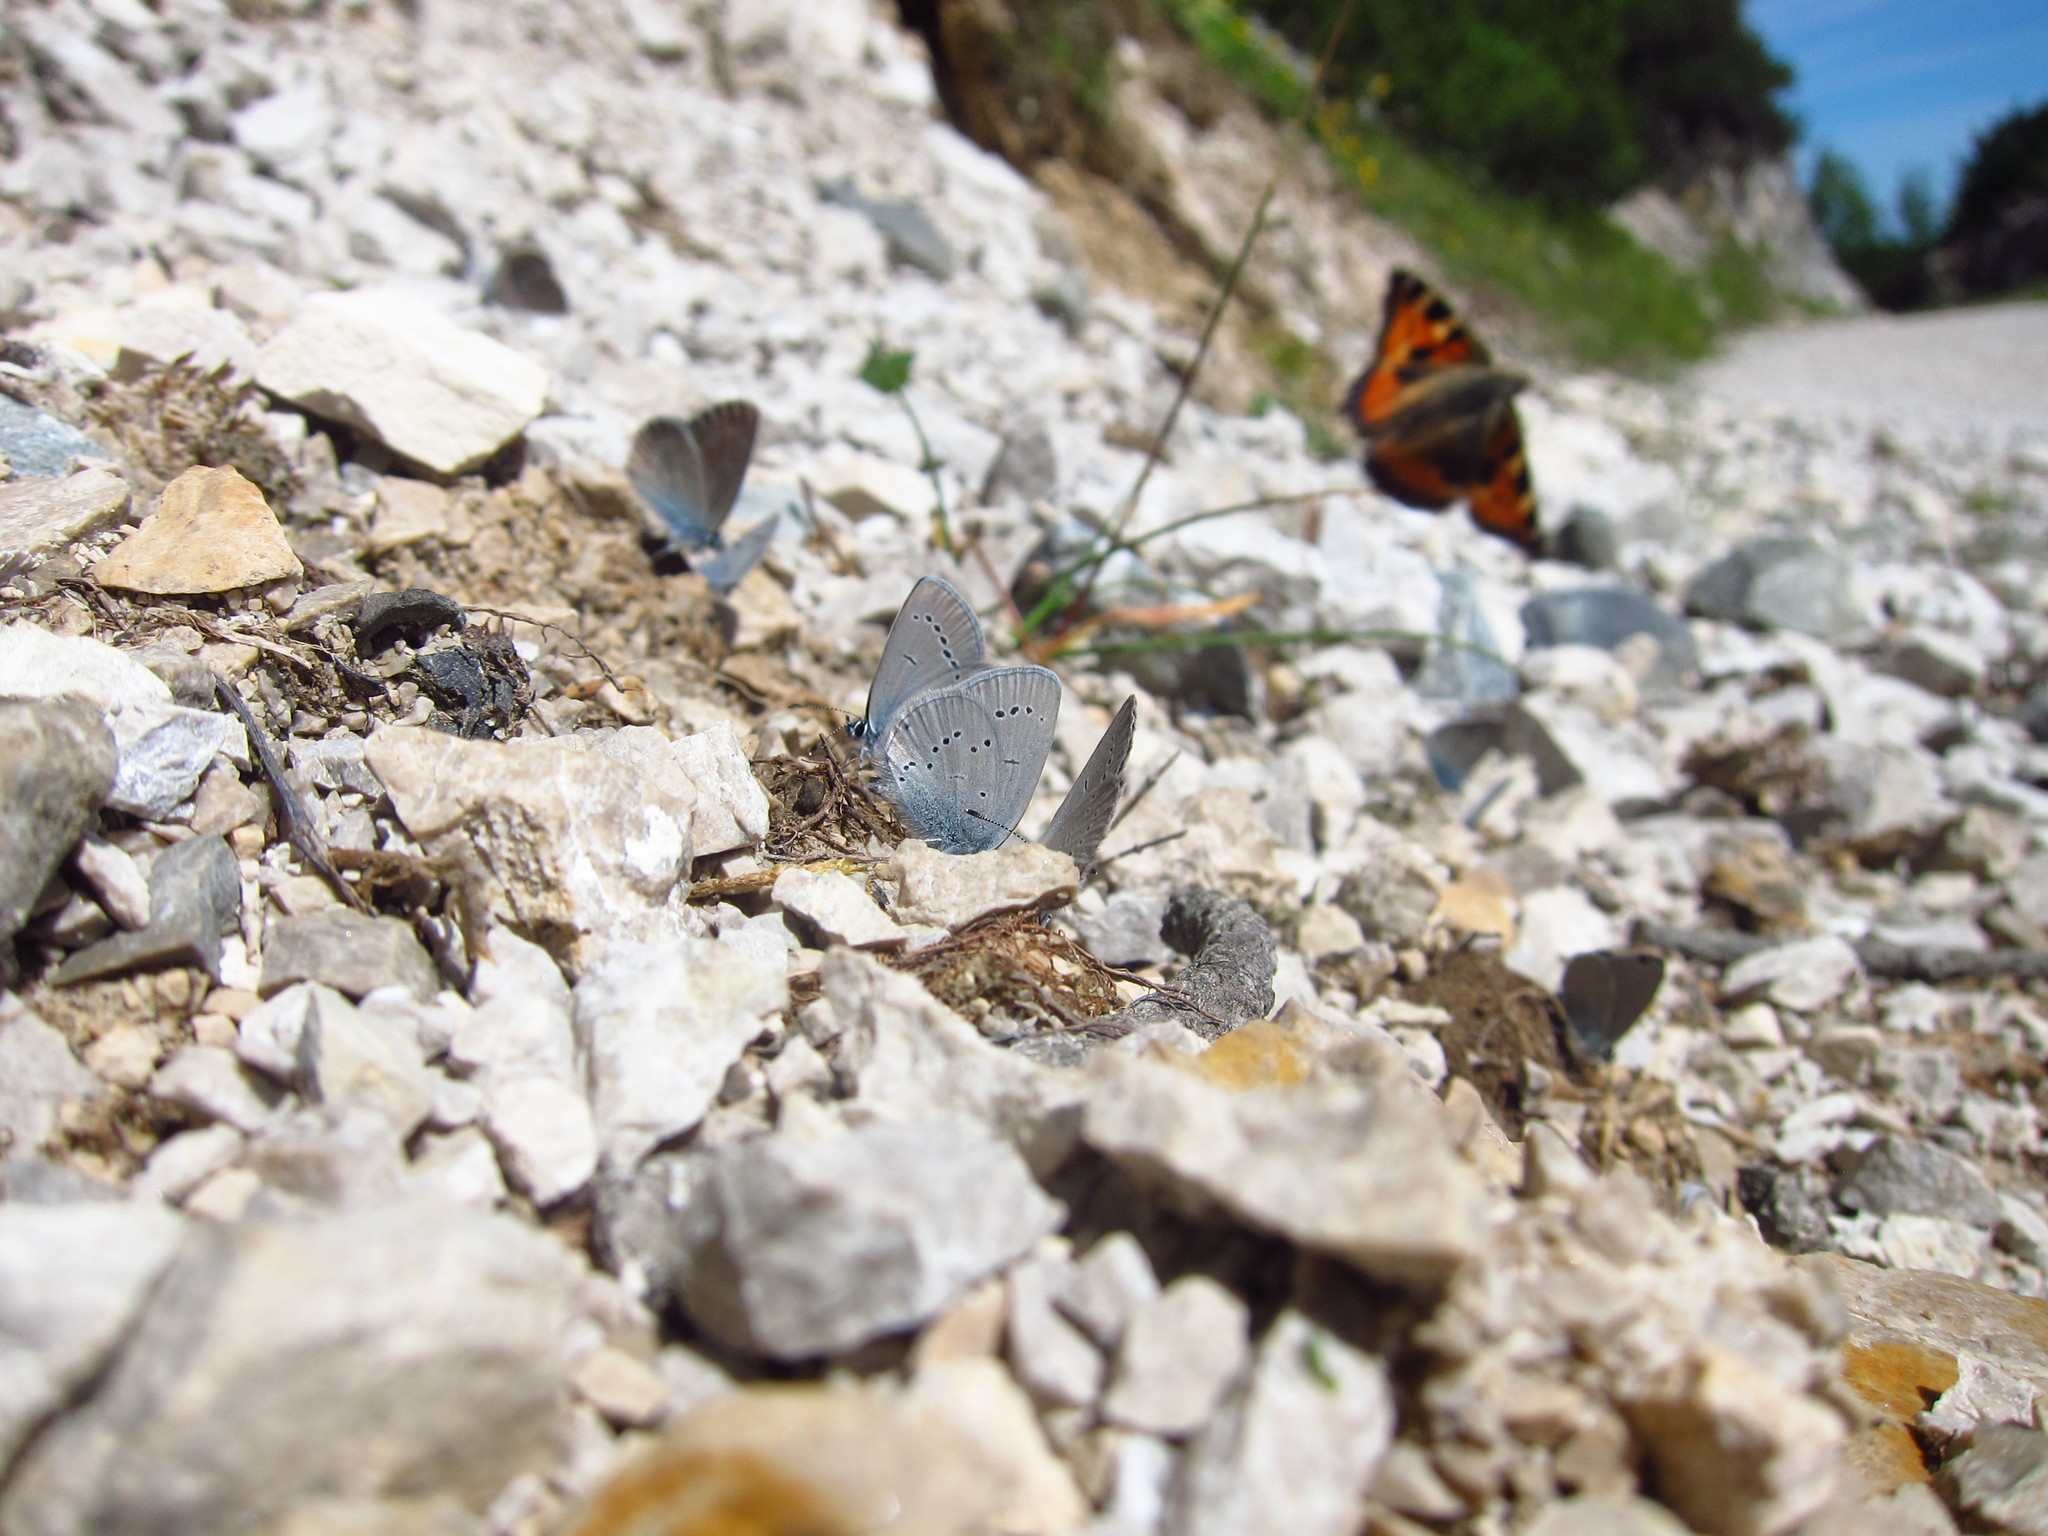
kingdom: Animalia
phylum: Arthropoda
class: Insecta
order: Lepidoptera
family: Lycaenidae
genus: Cupido
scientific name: Cupido minimus
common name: Small blue
